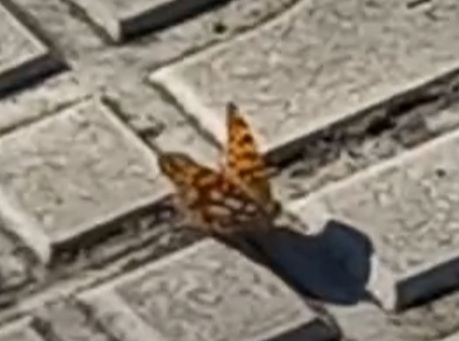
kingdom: Animalia
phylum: Arthropoda
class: Insecta
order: Lepidoptera
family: Nymphalidae
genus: Issoria
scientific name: Issoria lathonia
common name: Queen of spain fritillary
